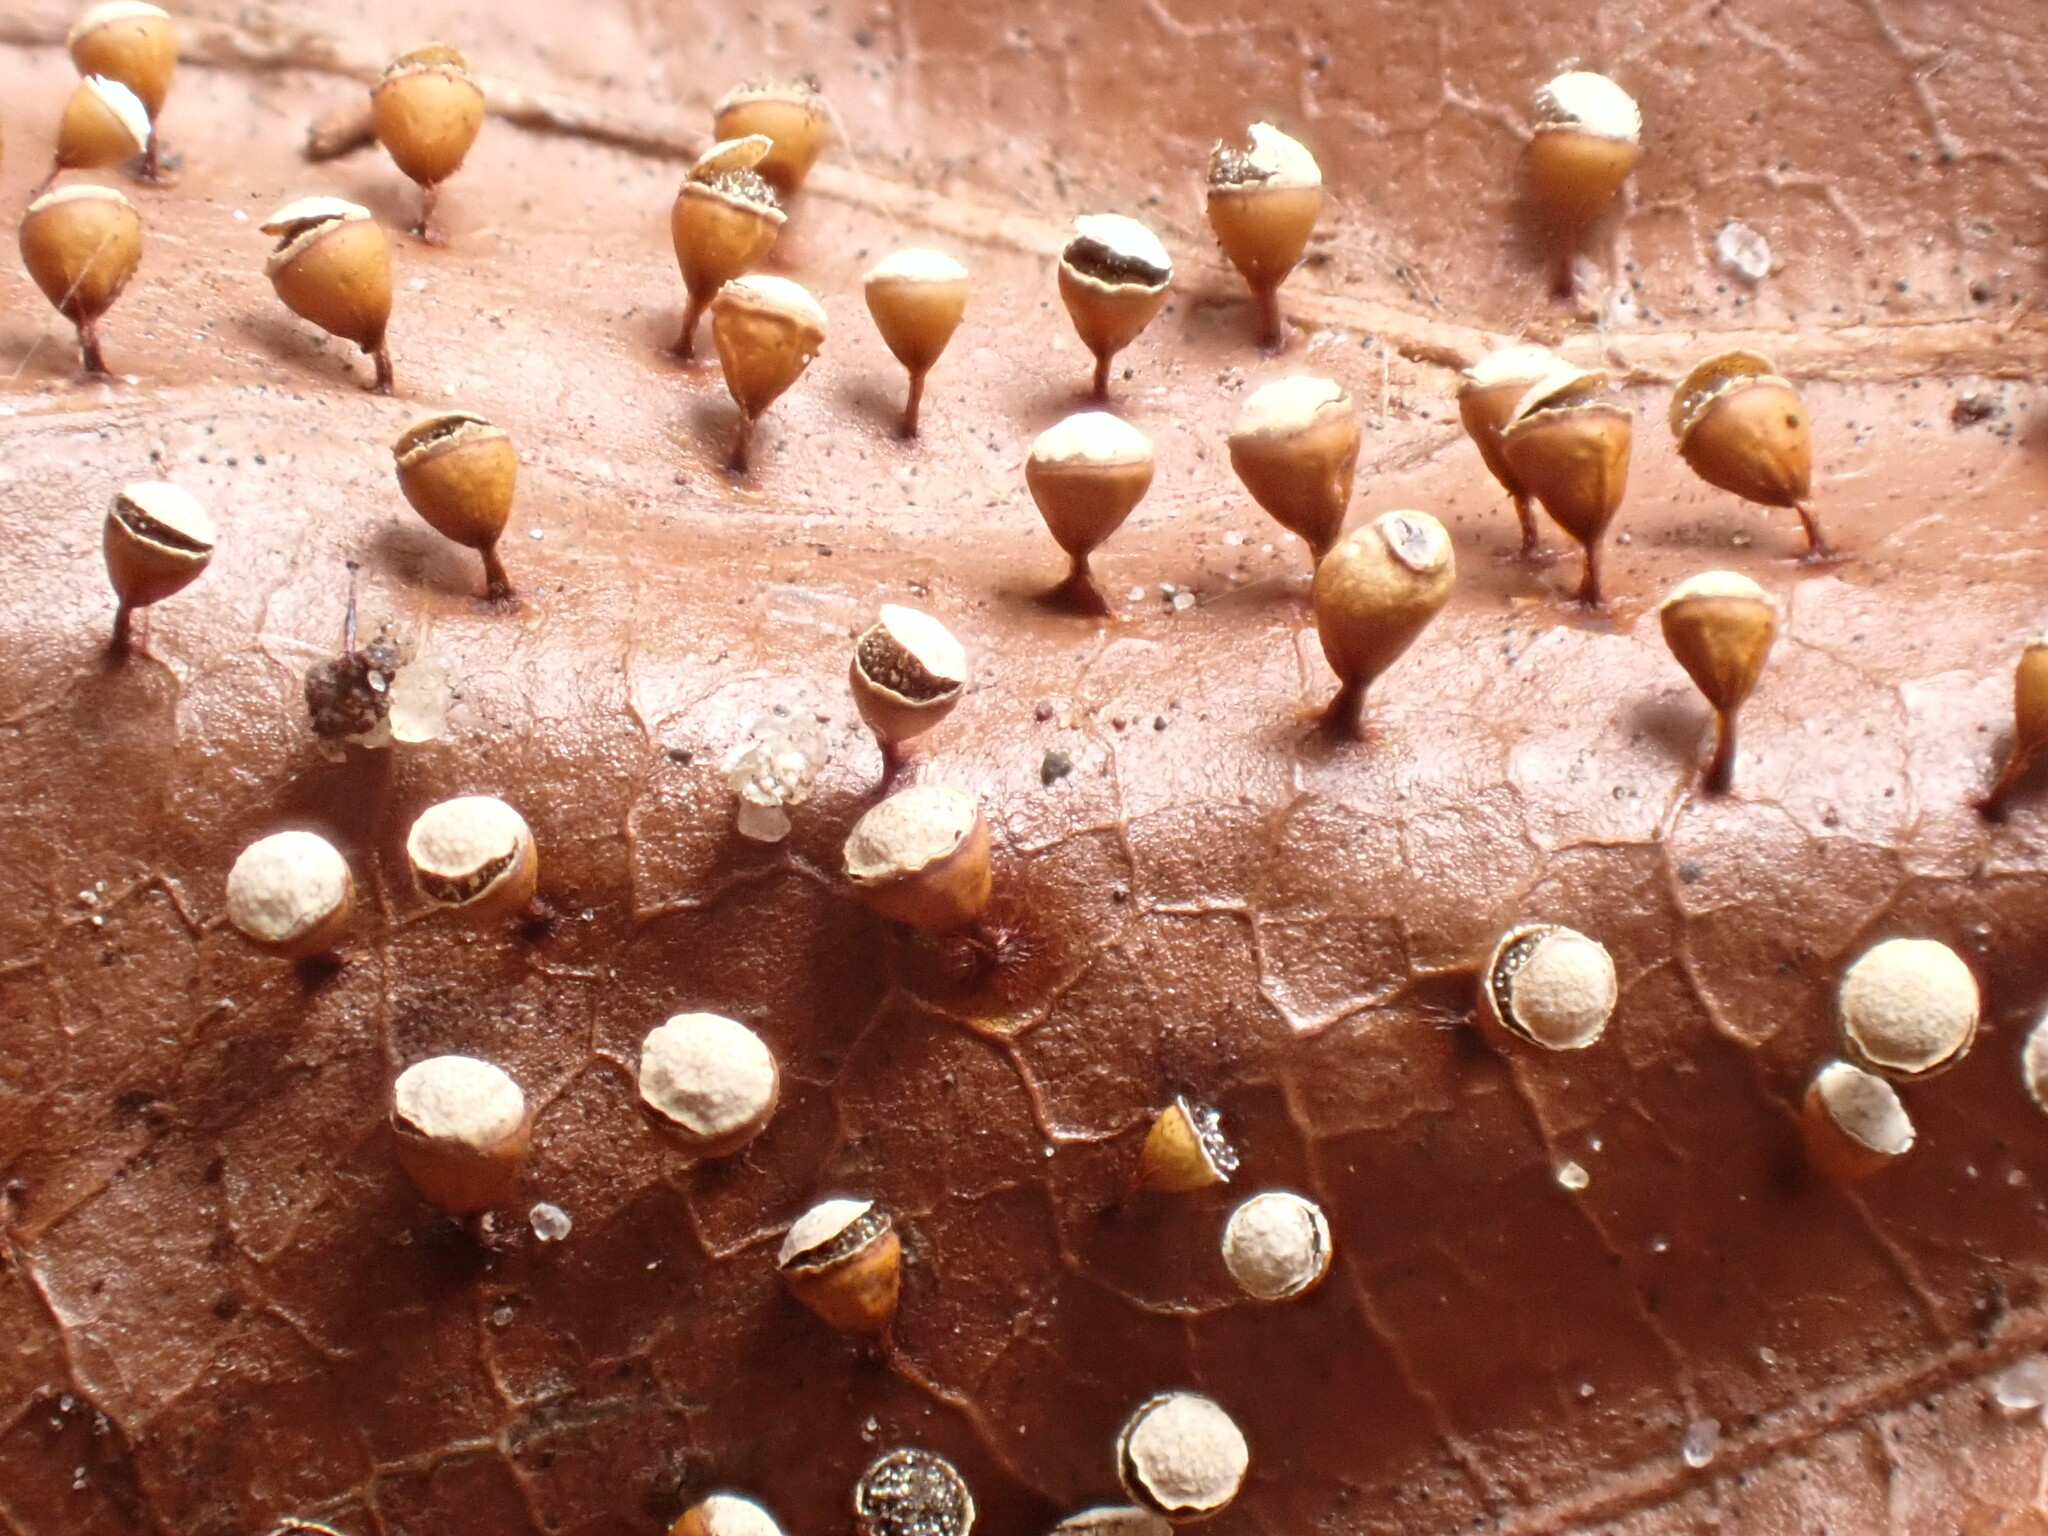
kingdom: Protozoa
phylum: Mycetozoa
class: Myxomycetes
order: Physarales
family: Physaraceae
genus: Craterium
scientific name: Craterium minutum
